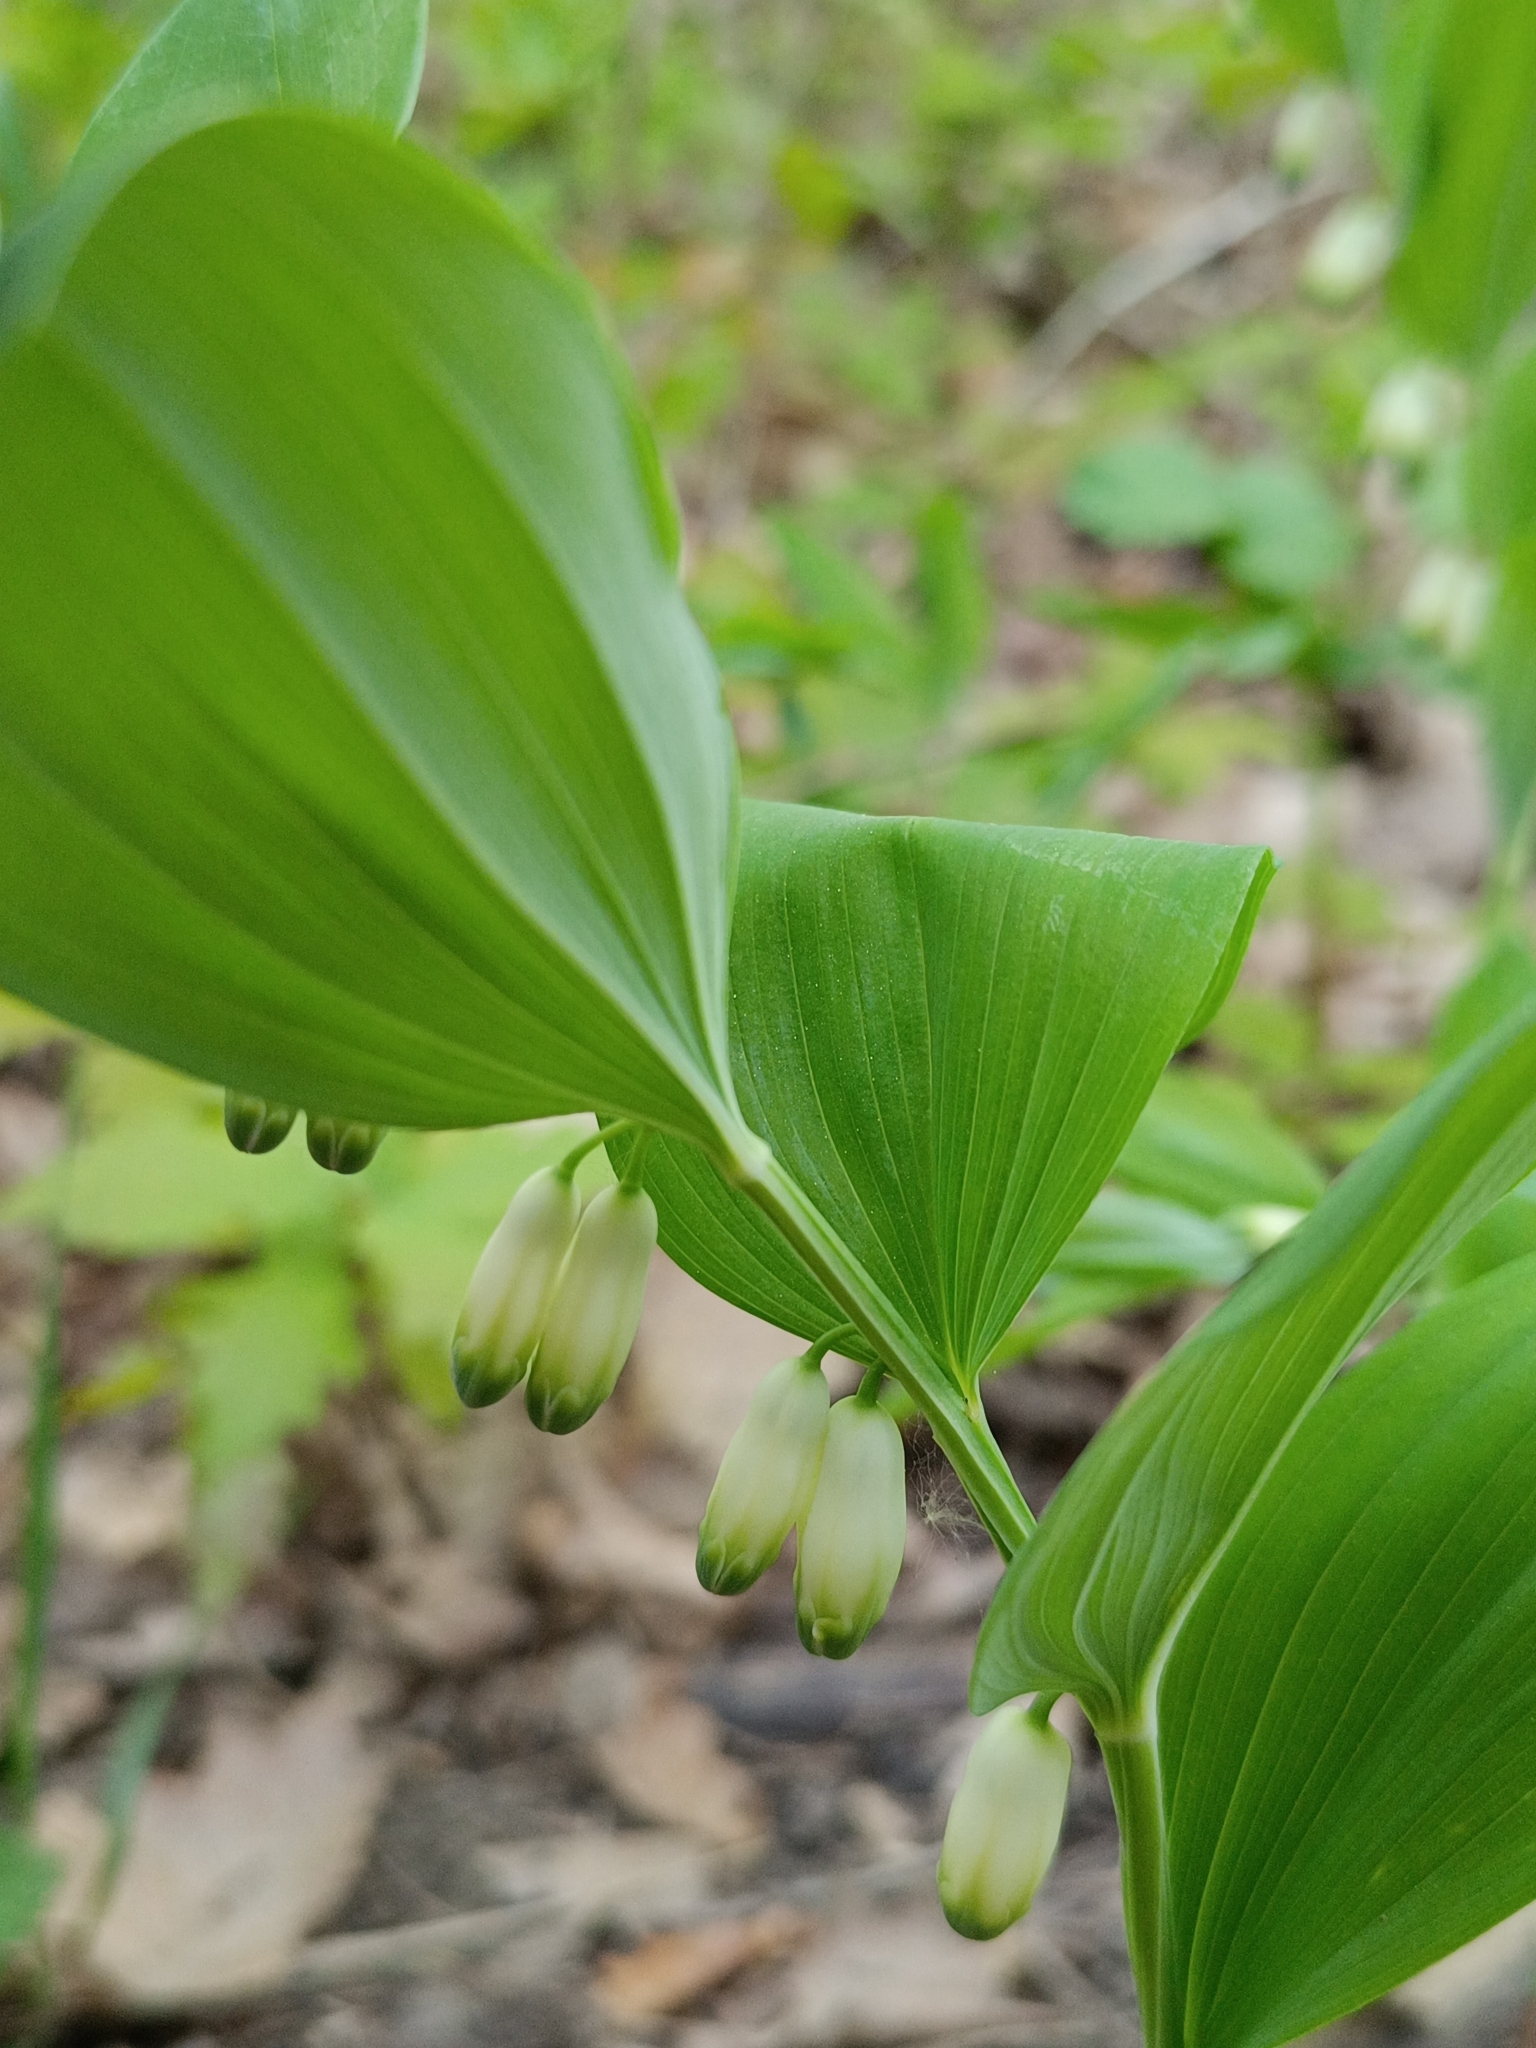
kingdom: Plantae
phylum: Tracheophyta
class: Liliopsida
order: Asparagales
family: Asparagaceae
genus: Polygonatum
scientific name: Polygonatum odoratum
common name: Angular solomon's-seal
